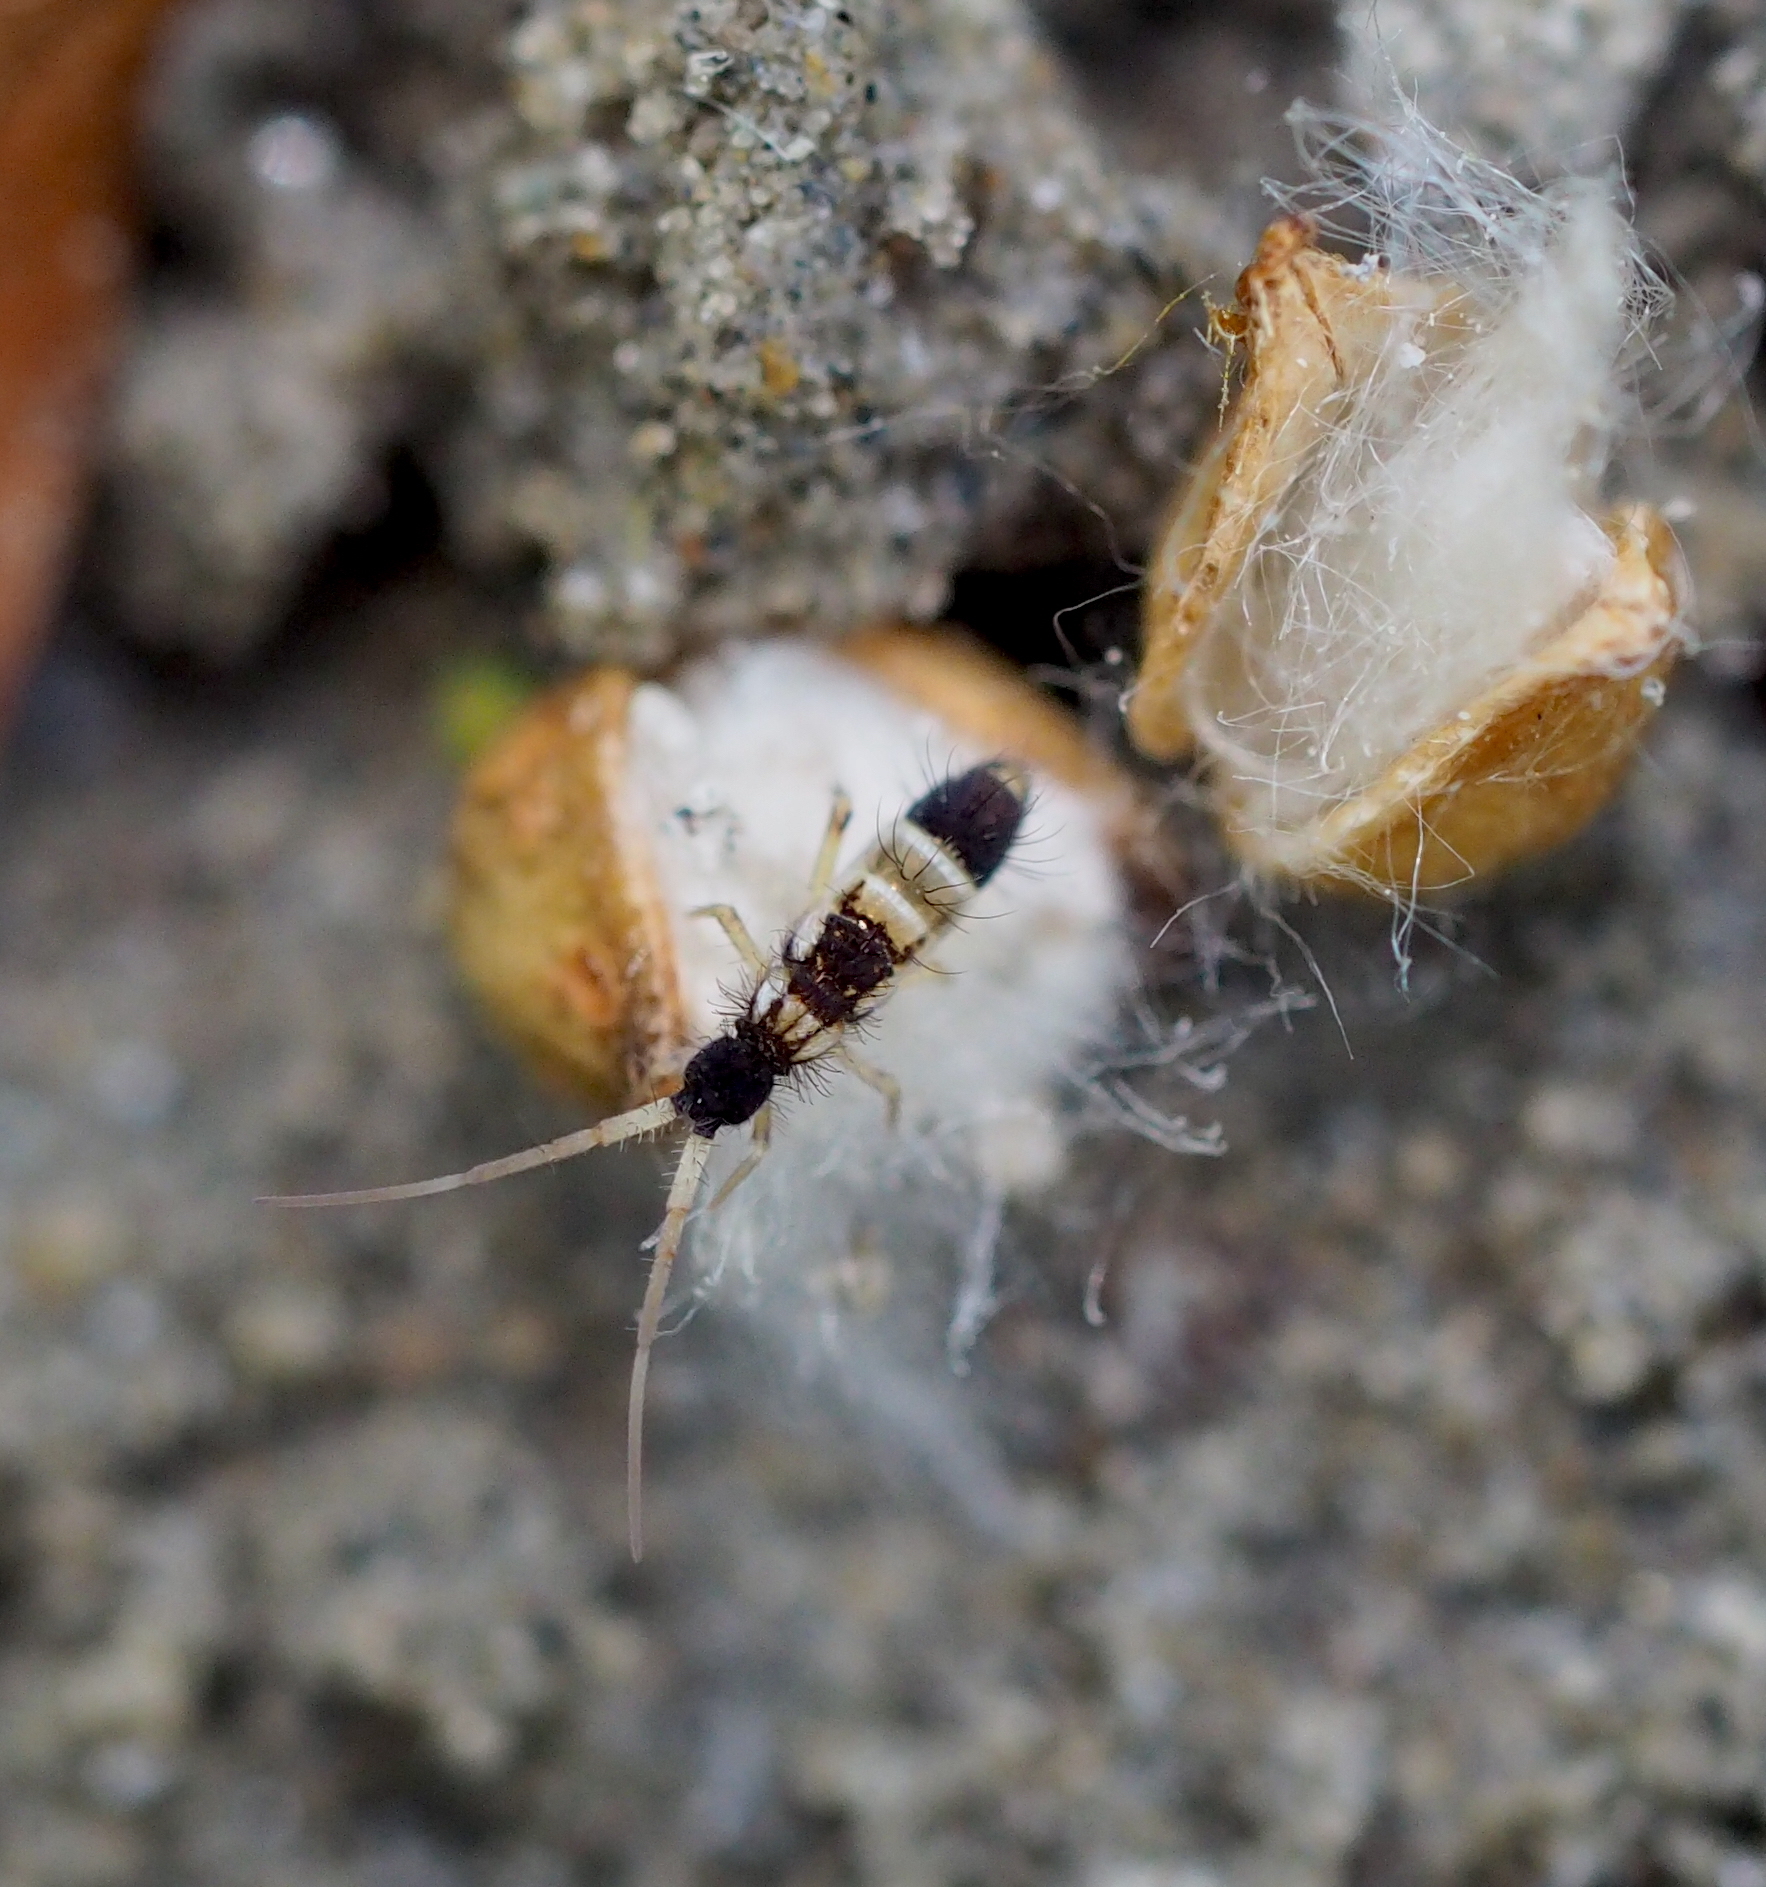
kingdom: Animalia
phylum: Arthropoda
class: Collembola
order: Entomobryomorpha
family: Orchesellidae
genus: Orchesella
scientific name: Orchesella pannonica
